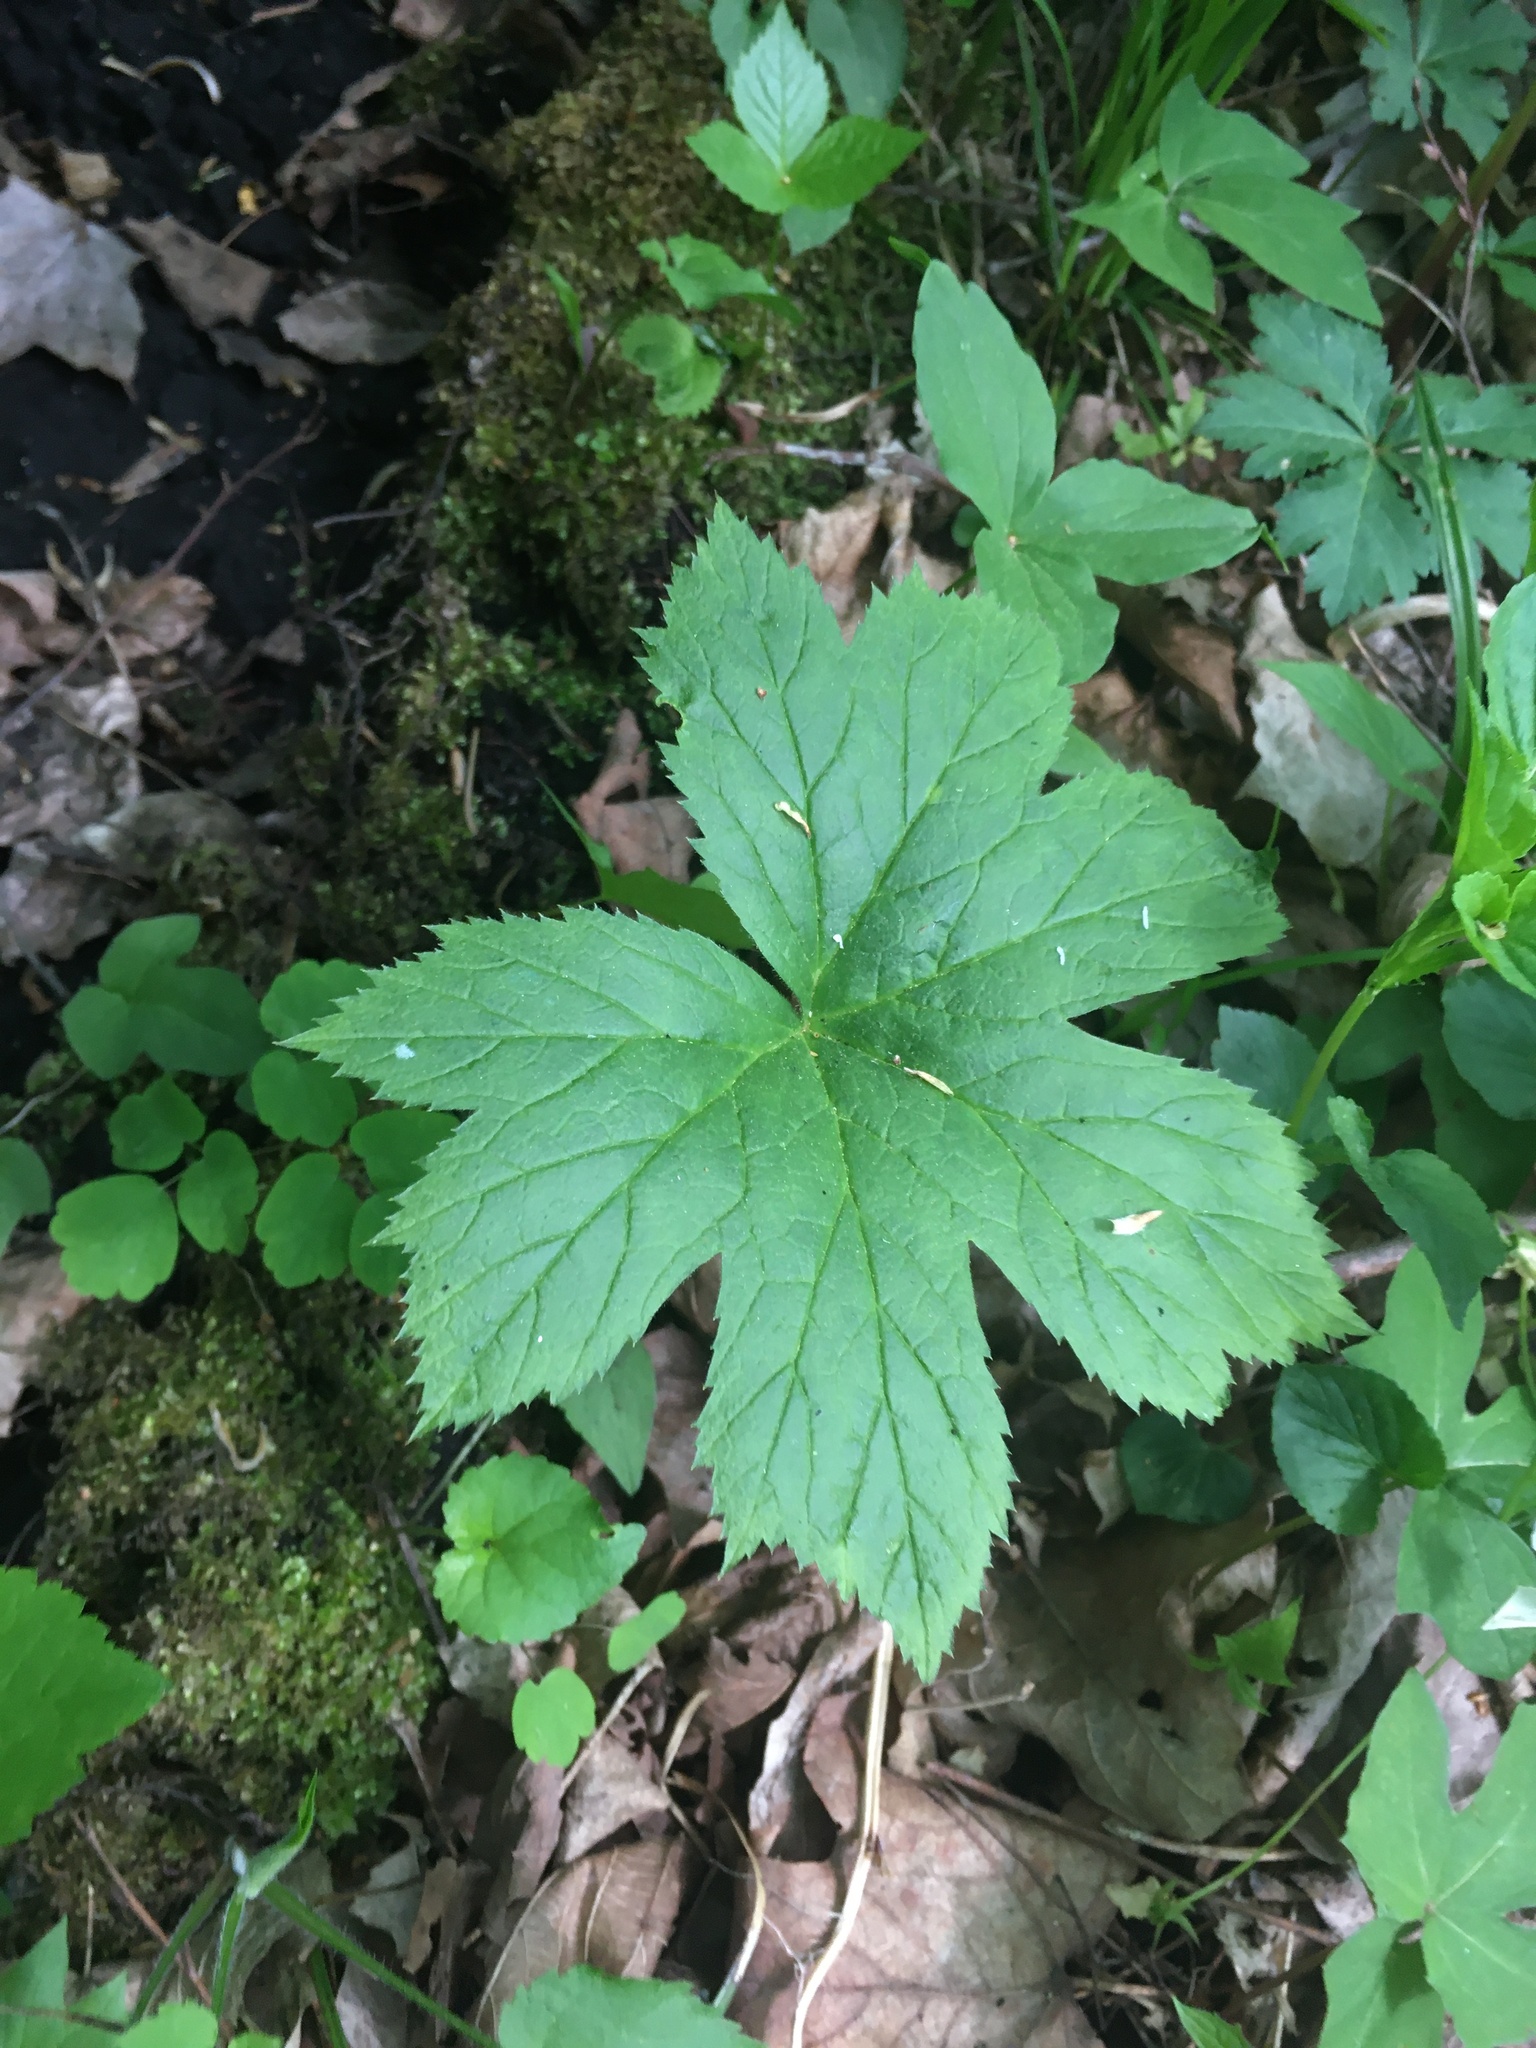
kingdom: Plantae
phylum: Tracheophyta
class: Magnoliopsida
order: Ranunculales
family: Ranunculaceae
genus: Hydrastis
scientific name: Hydrastis canadensis
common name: Goldenseal
